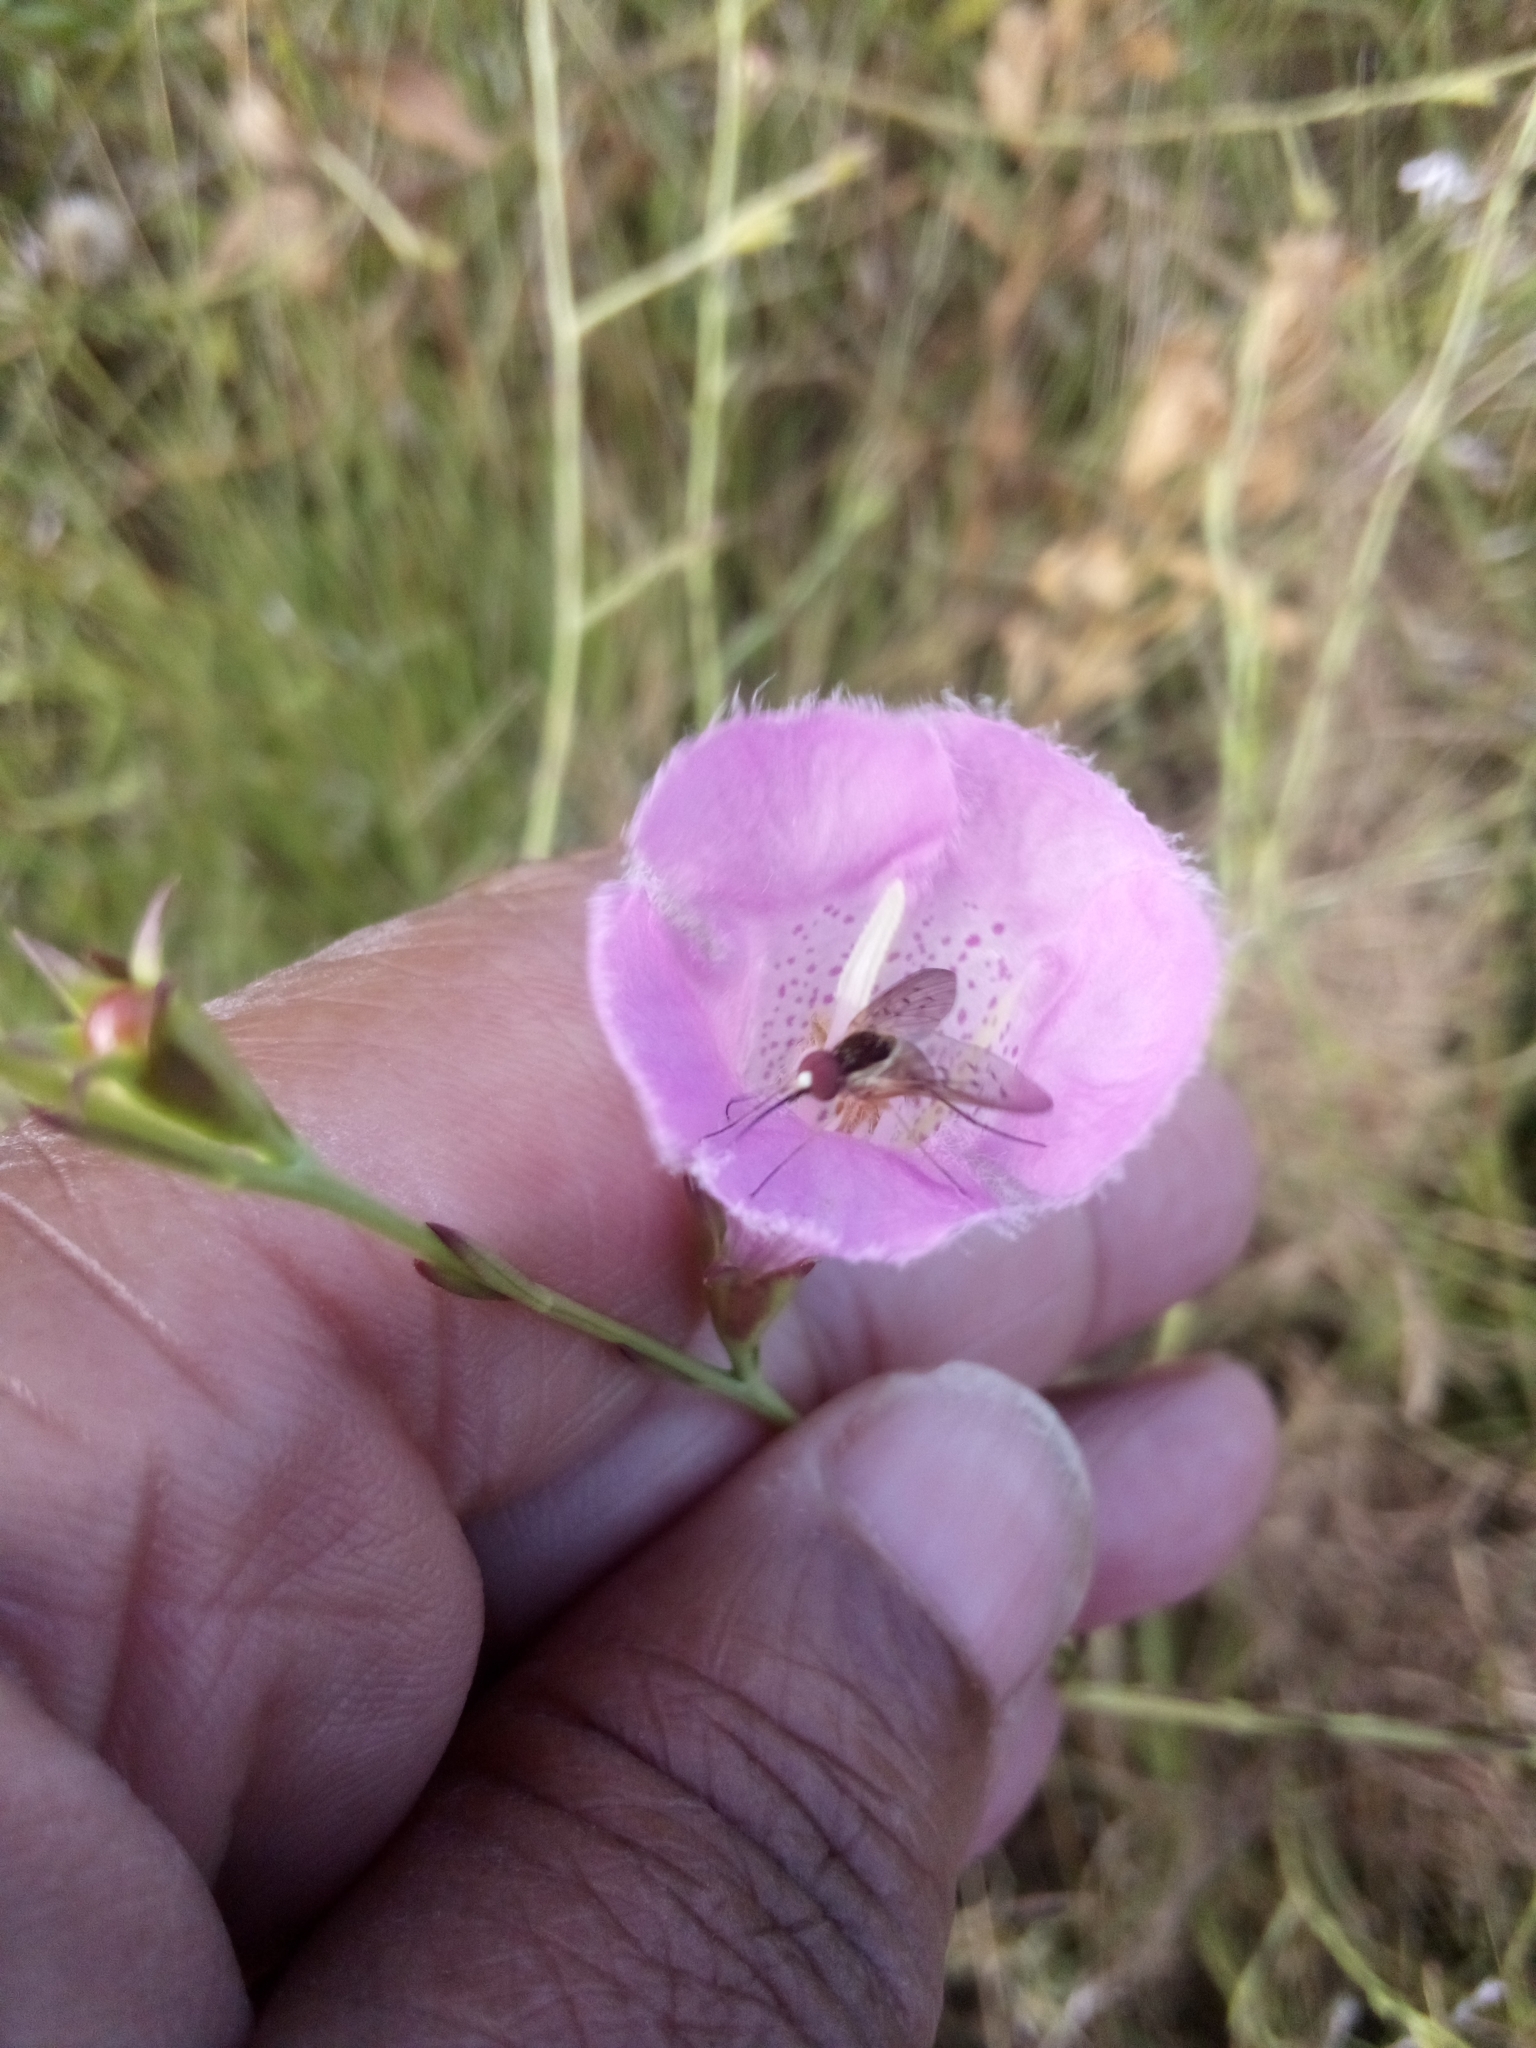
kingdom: Plantae
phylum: Tracheophyta
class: Magnoliopsida
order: Lamiales
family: Orobanchaceae
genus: Agalinis
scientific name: Agalinis heterophylla
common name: Prairie agalinis
